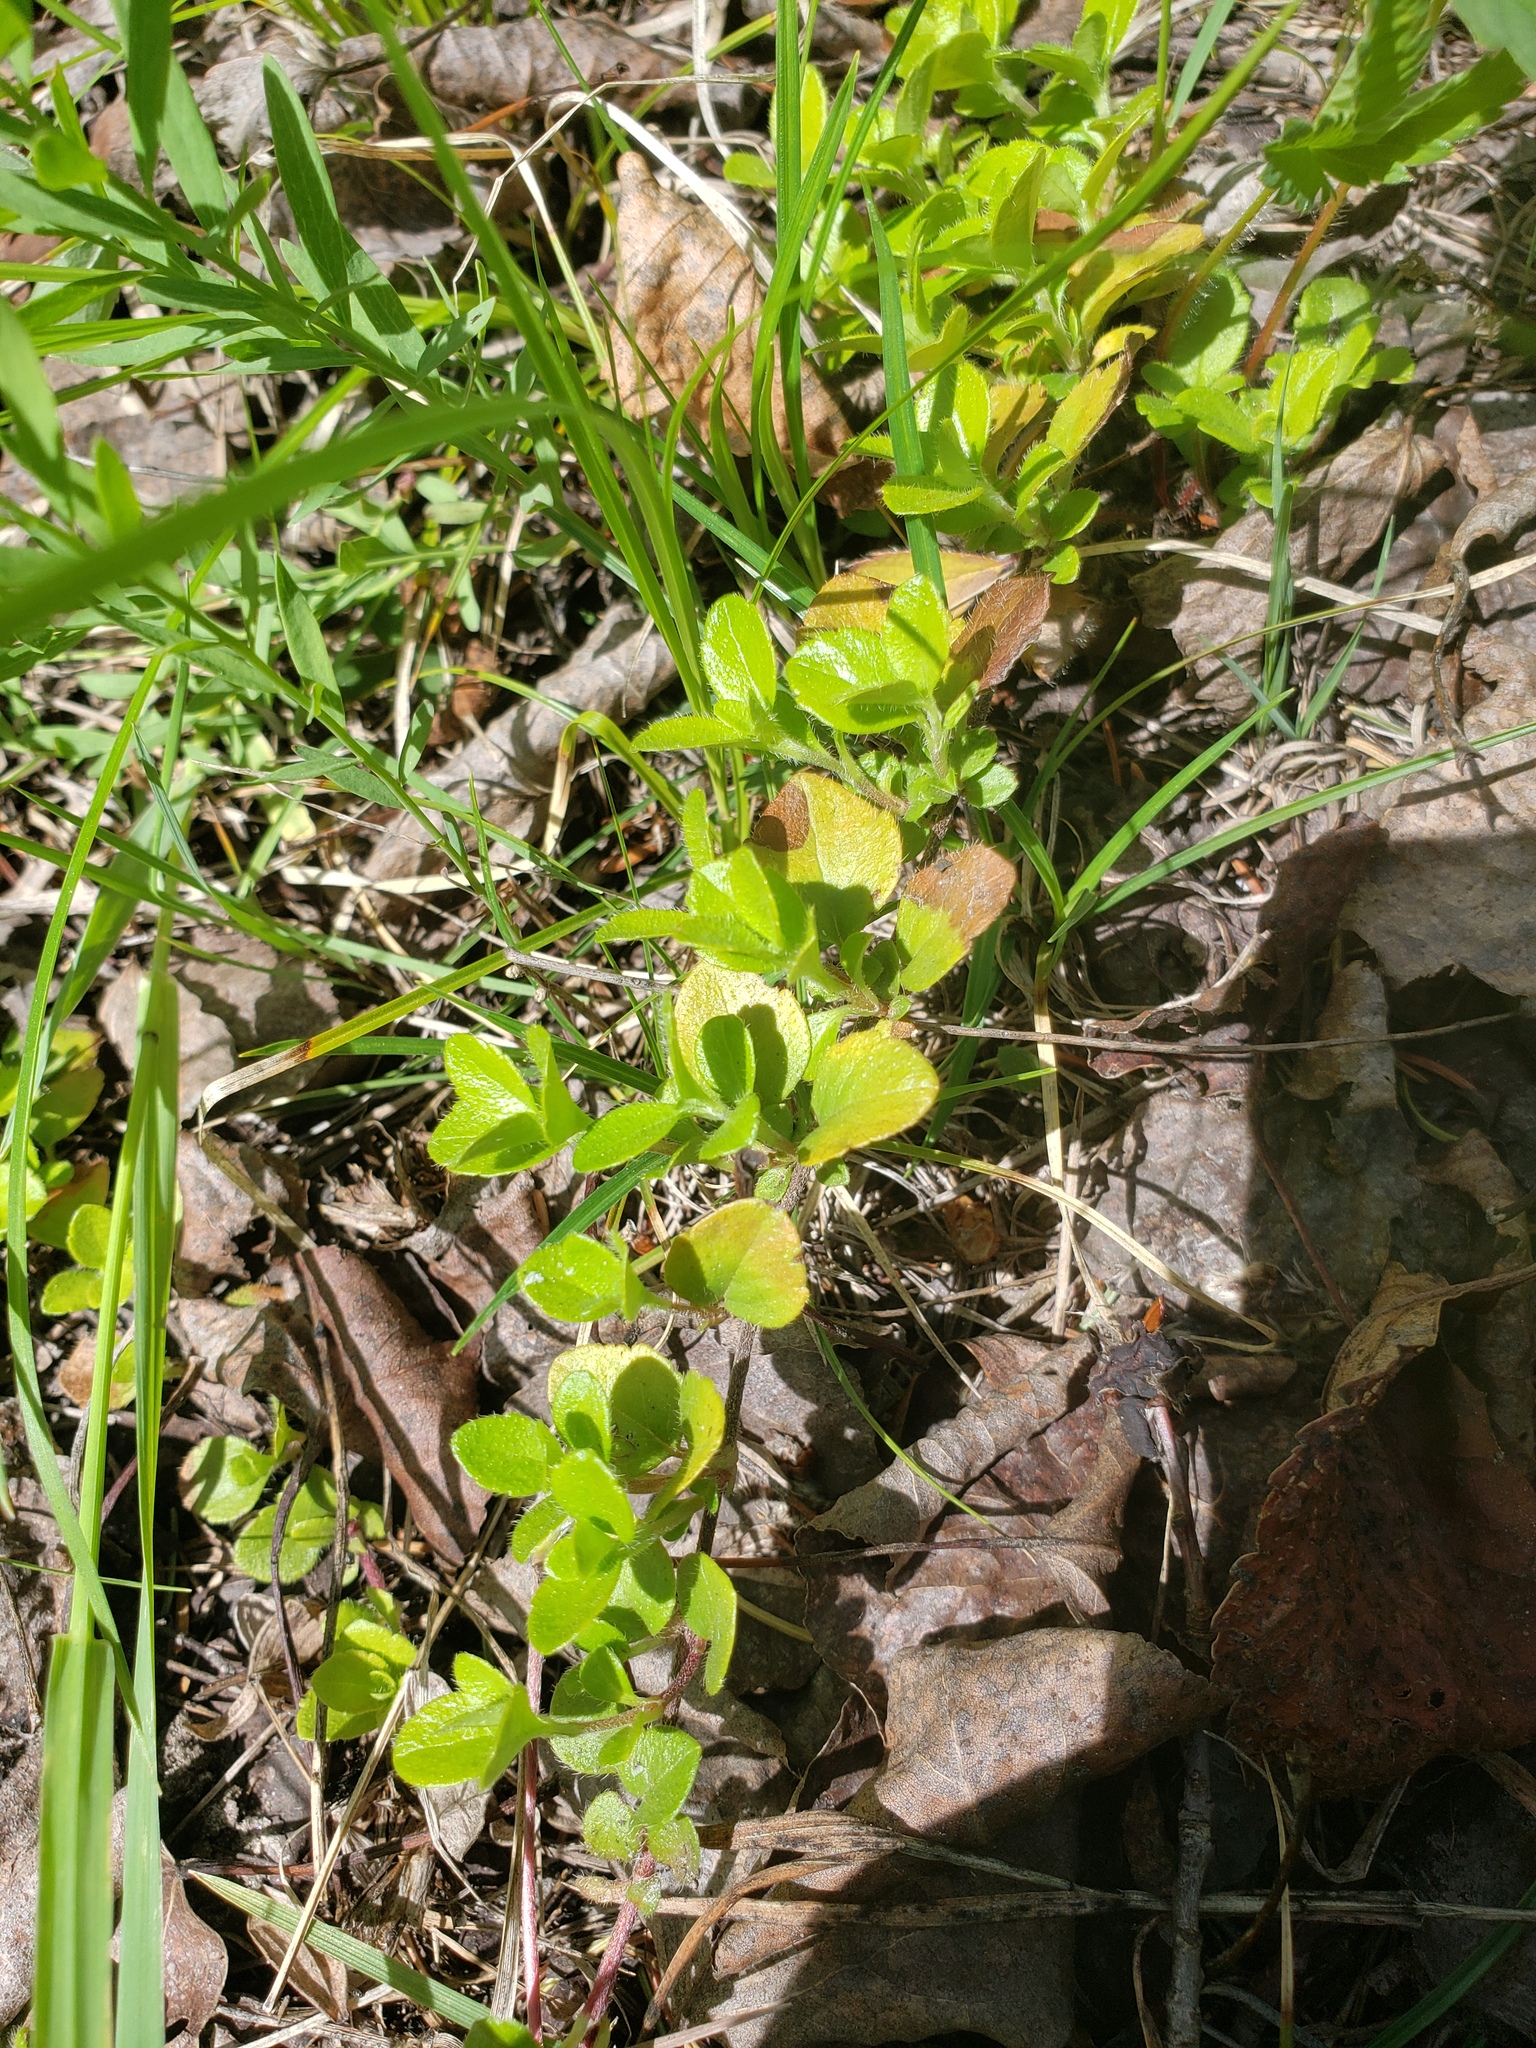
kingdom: Plantae
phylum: Tracheophyta
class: Magnoliopsida
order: Dipsacales
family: Caprifoliaceae
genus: Linnaea
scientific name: Linnaea borealis
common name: Twinflower
